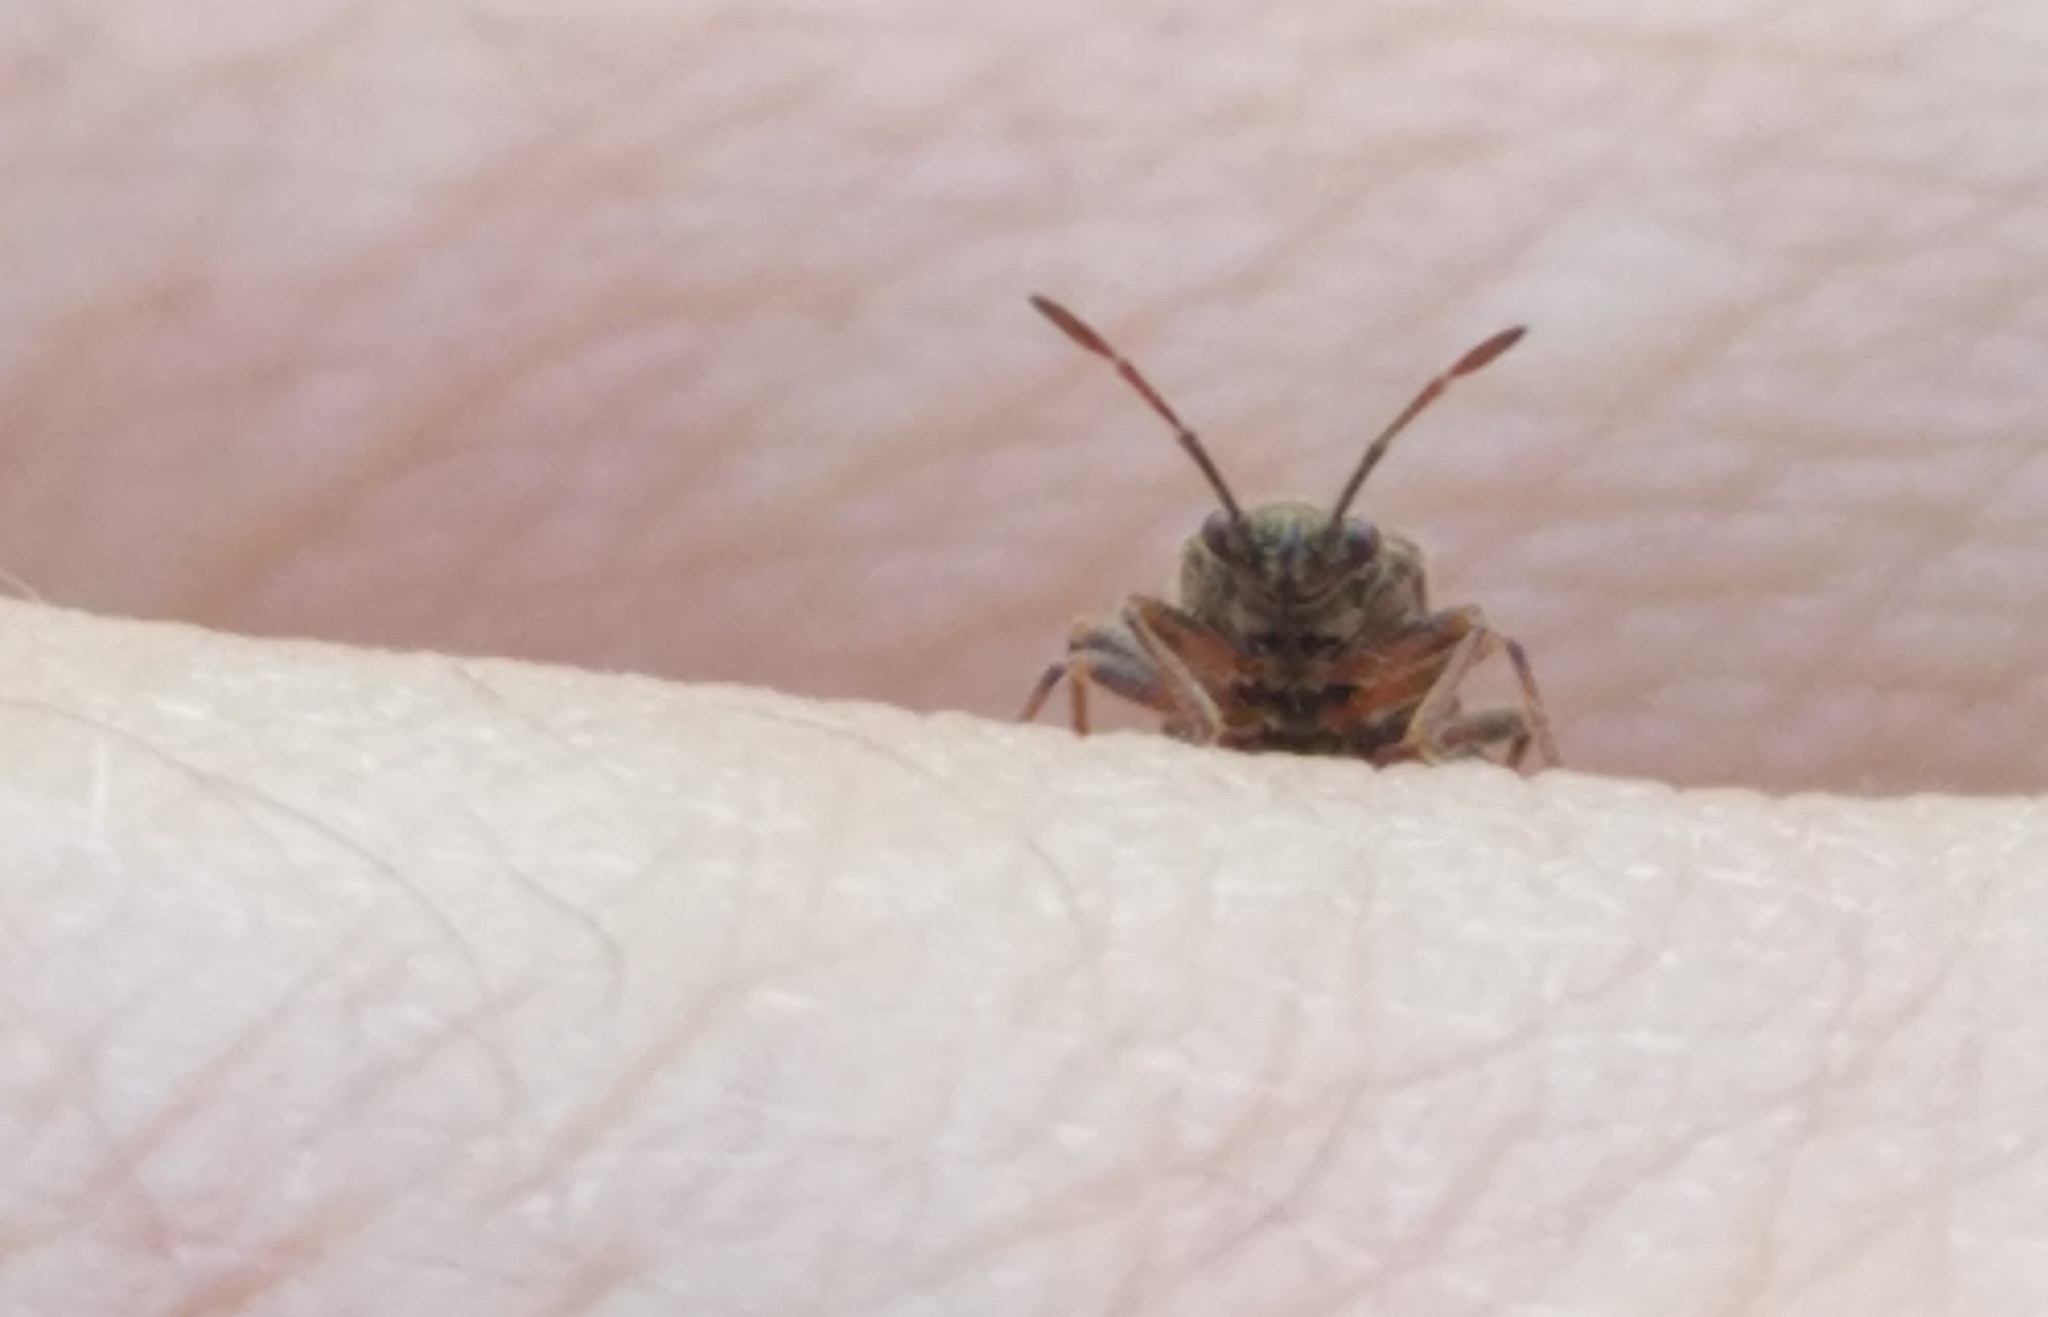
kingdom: Animalia
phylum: Arthropoda
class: Insecta
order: Hemiptera
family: Lygaeidae
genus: Arocatus
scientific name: Arocatus melanocephalus
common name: Lygaeid bug
